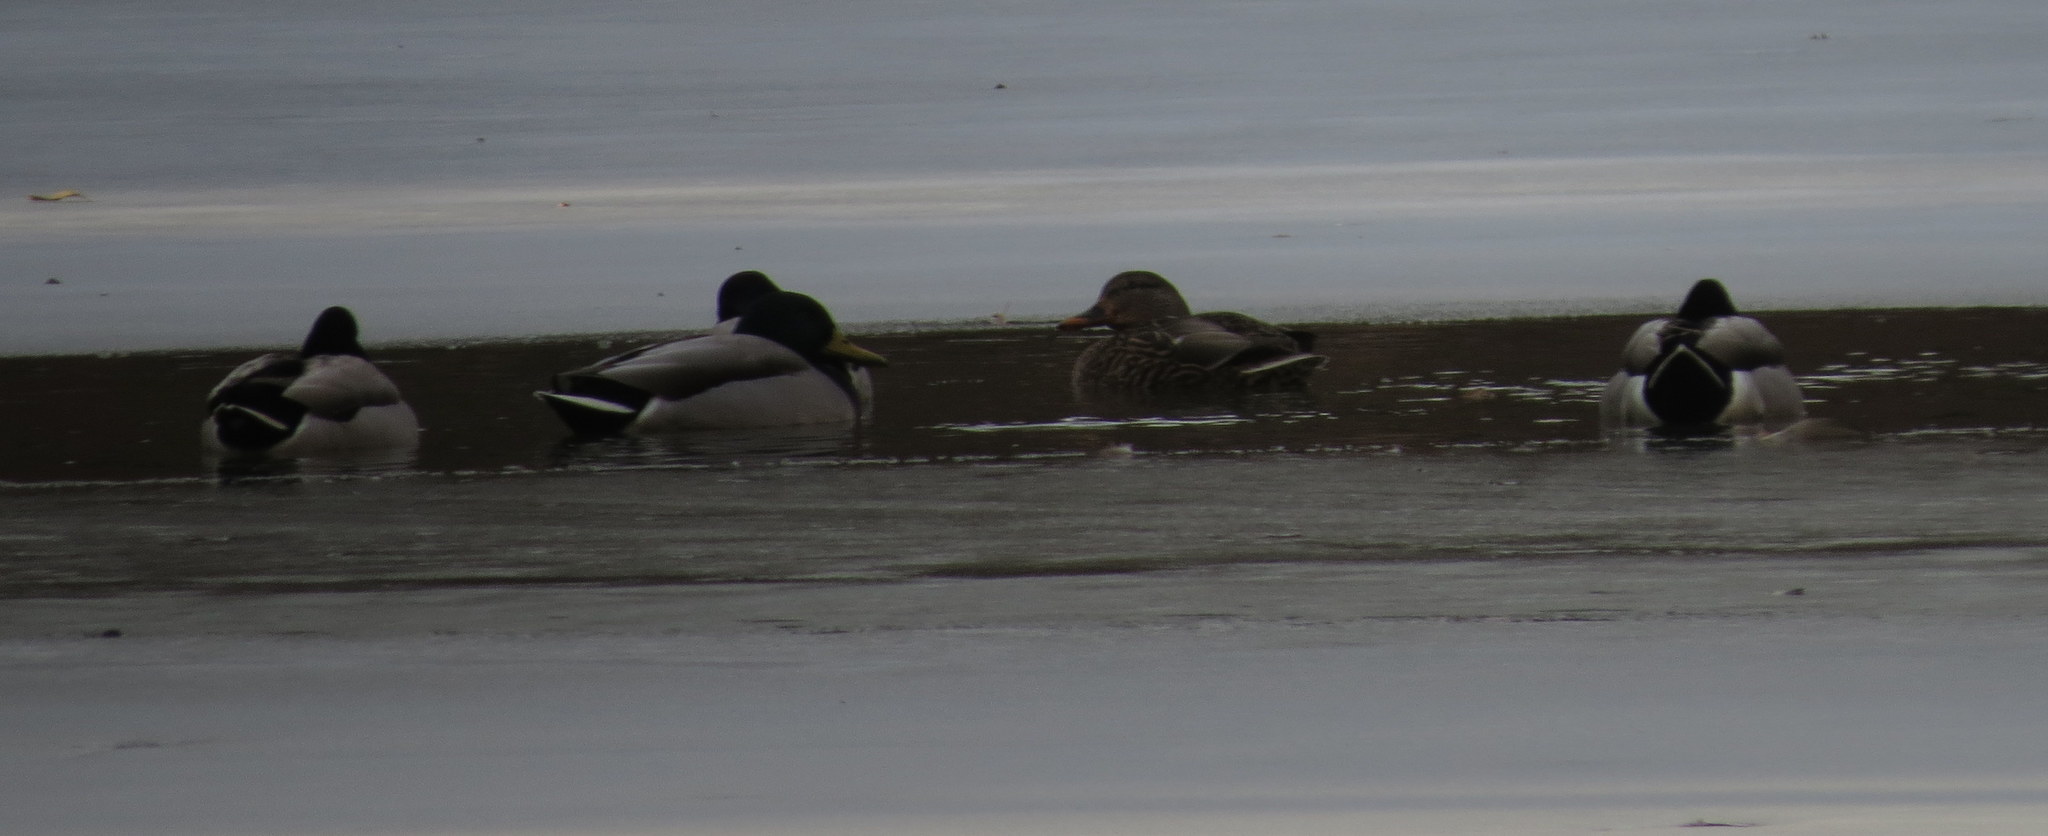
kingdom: Animalia
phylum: Chordata
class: Aves
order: Anseriformes
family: Anatidae
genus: Anas
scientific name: Anas platyrhynchos
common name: Mallard
